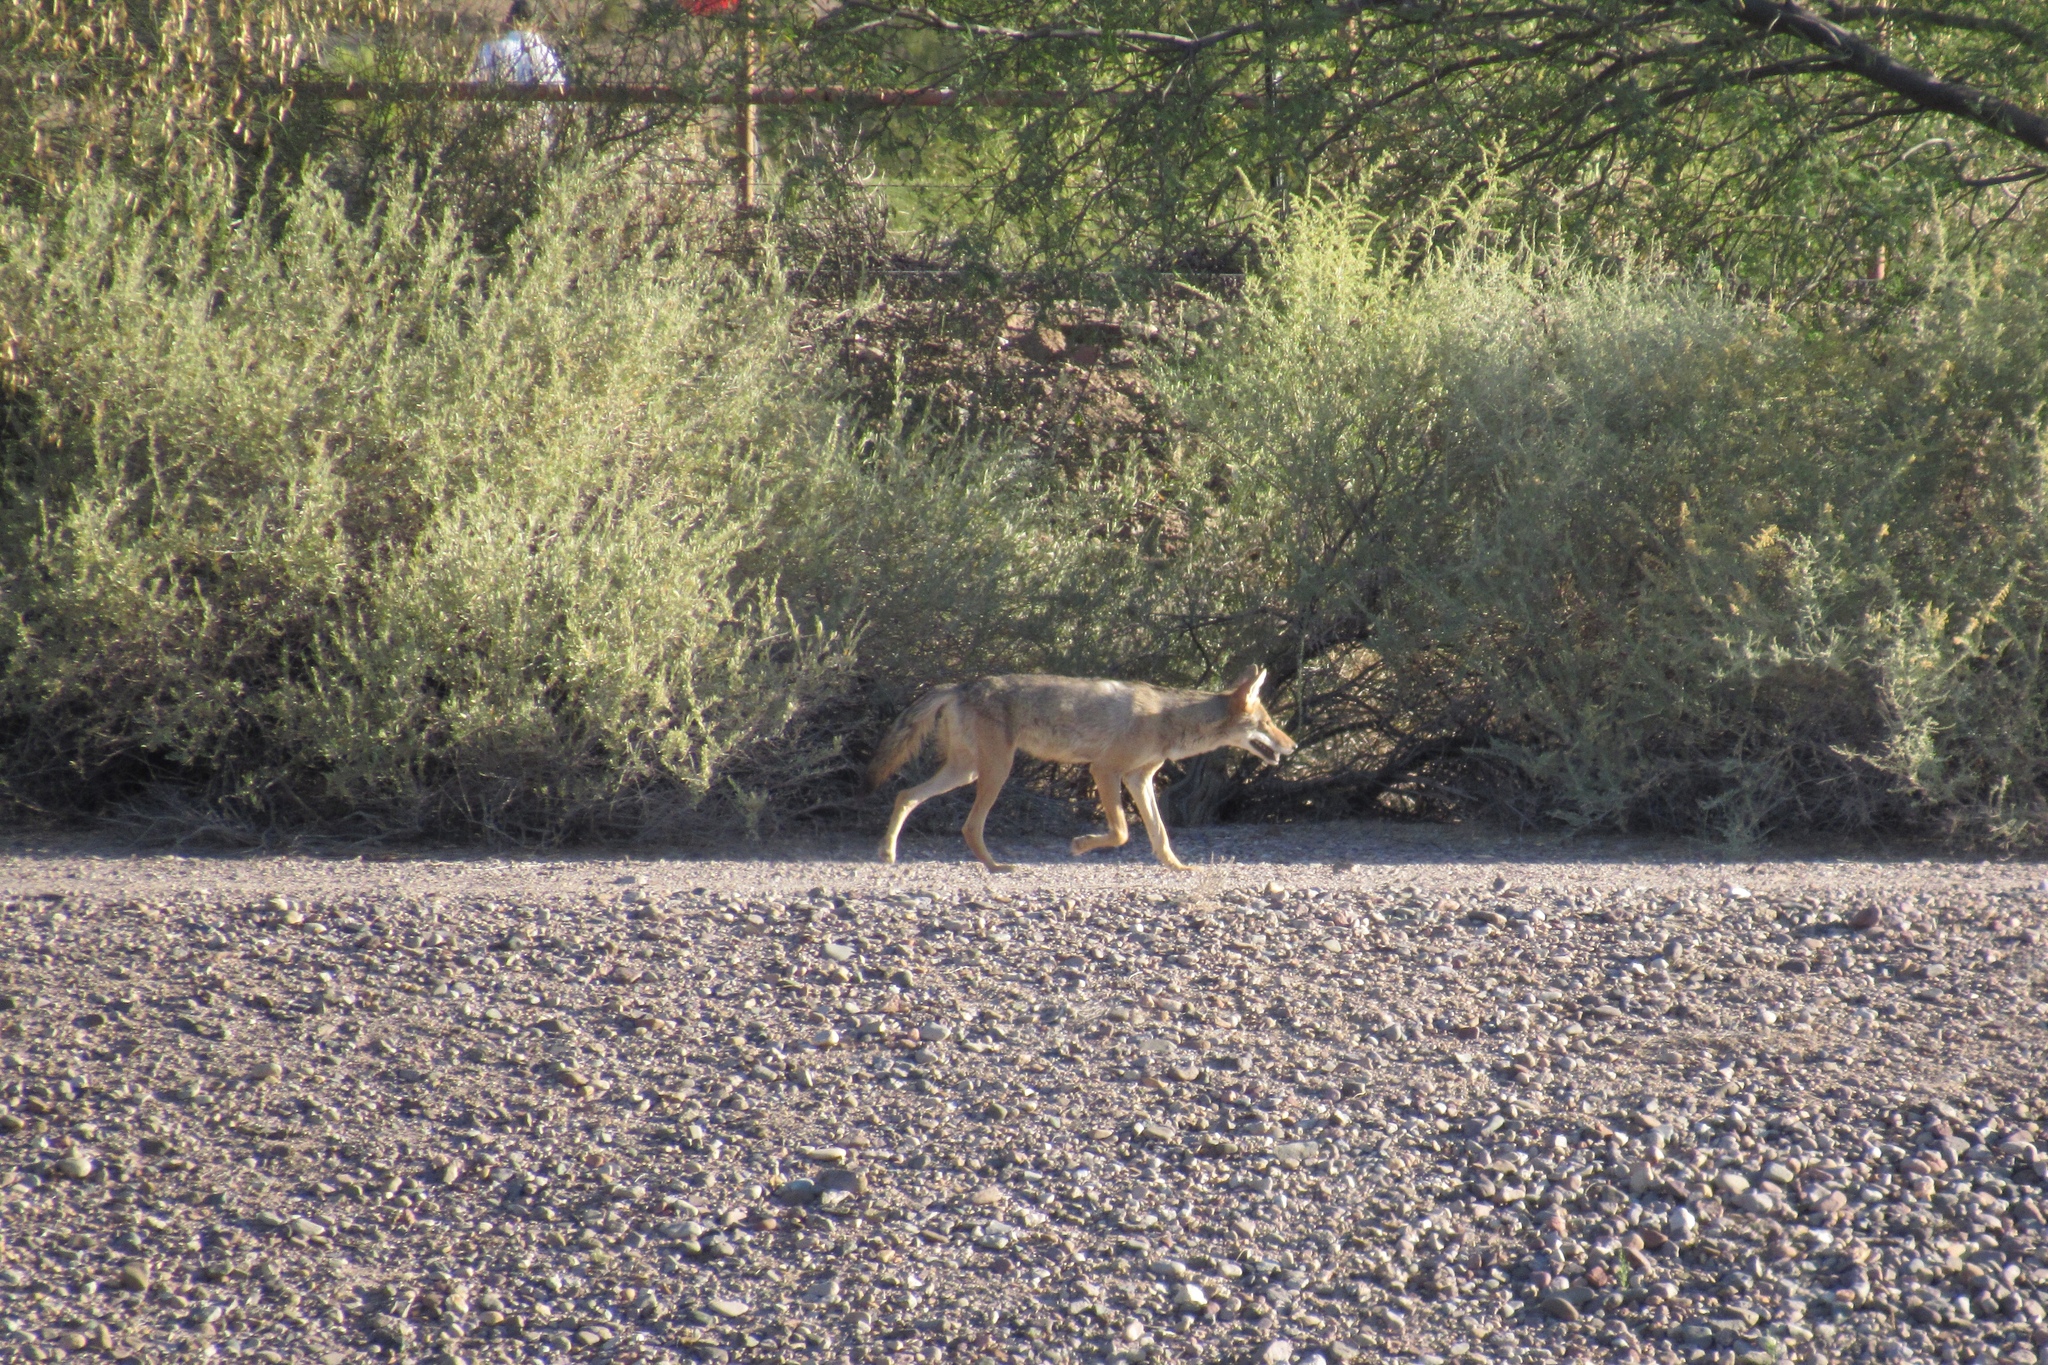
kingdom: Animalia
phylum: Chordata
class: Mammalia
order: Carnivora
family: Canidae
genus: Canis
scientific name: Canis latrans
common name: Coyote
